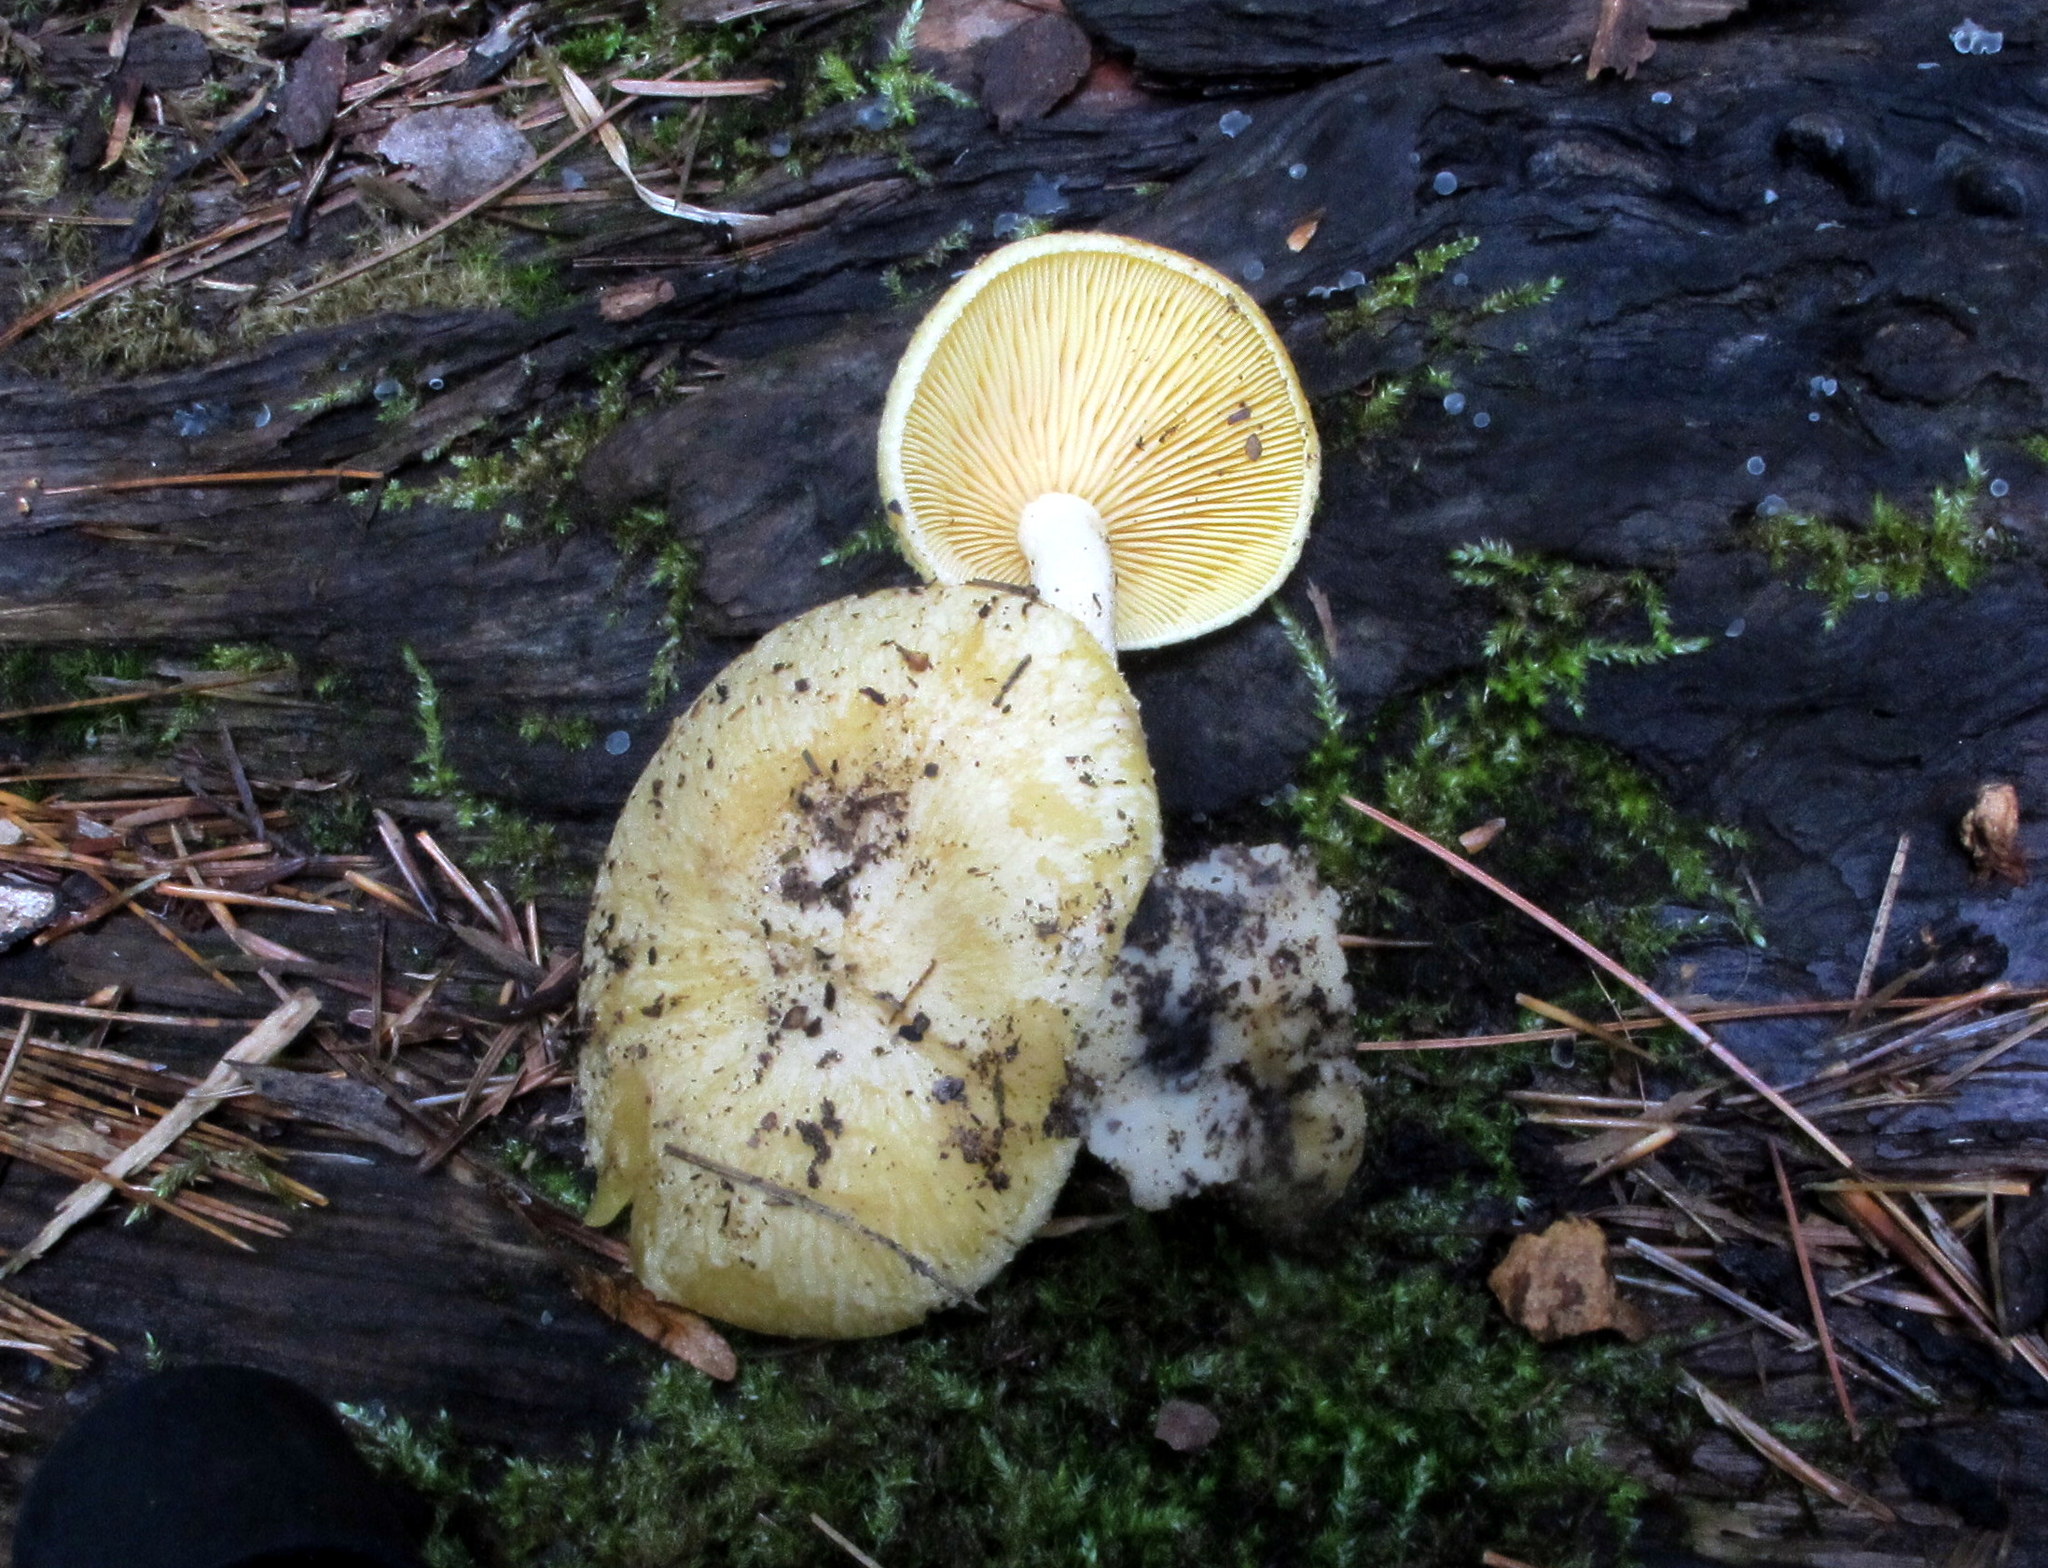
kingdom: Fungi
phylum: Basidiomycota
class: Agaricomycetes
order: Agaricales
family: Tricholomataceae
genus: Tricholomopsis
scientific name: Tricholomopsis sulfureoides
